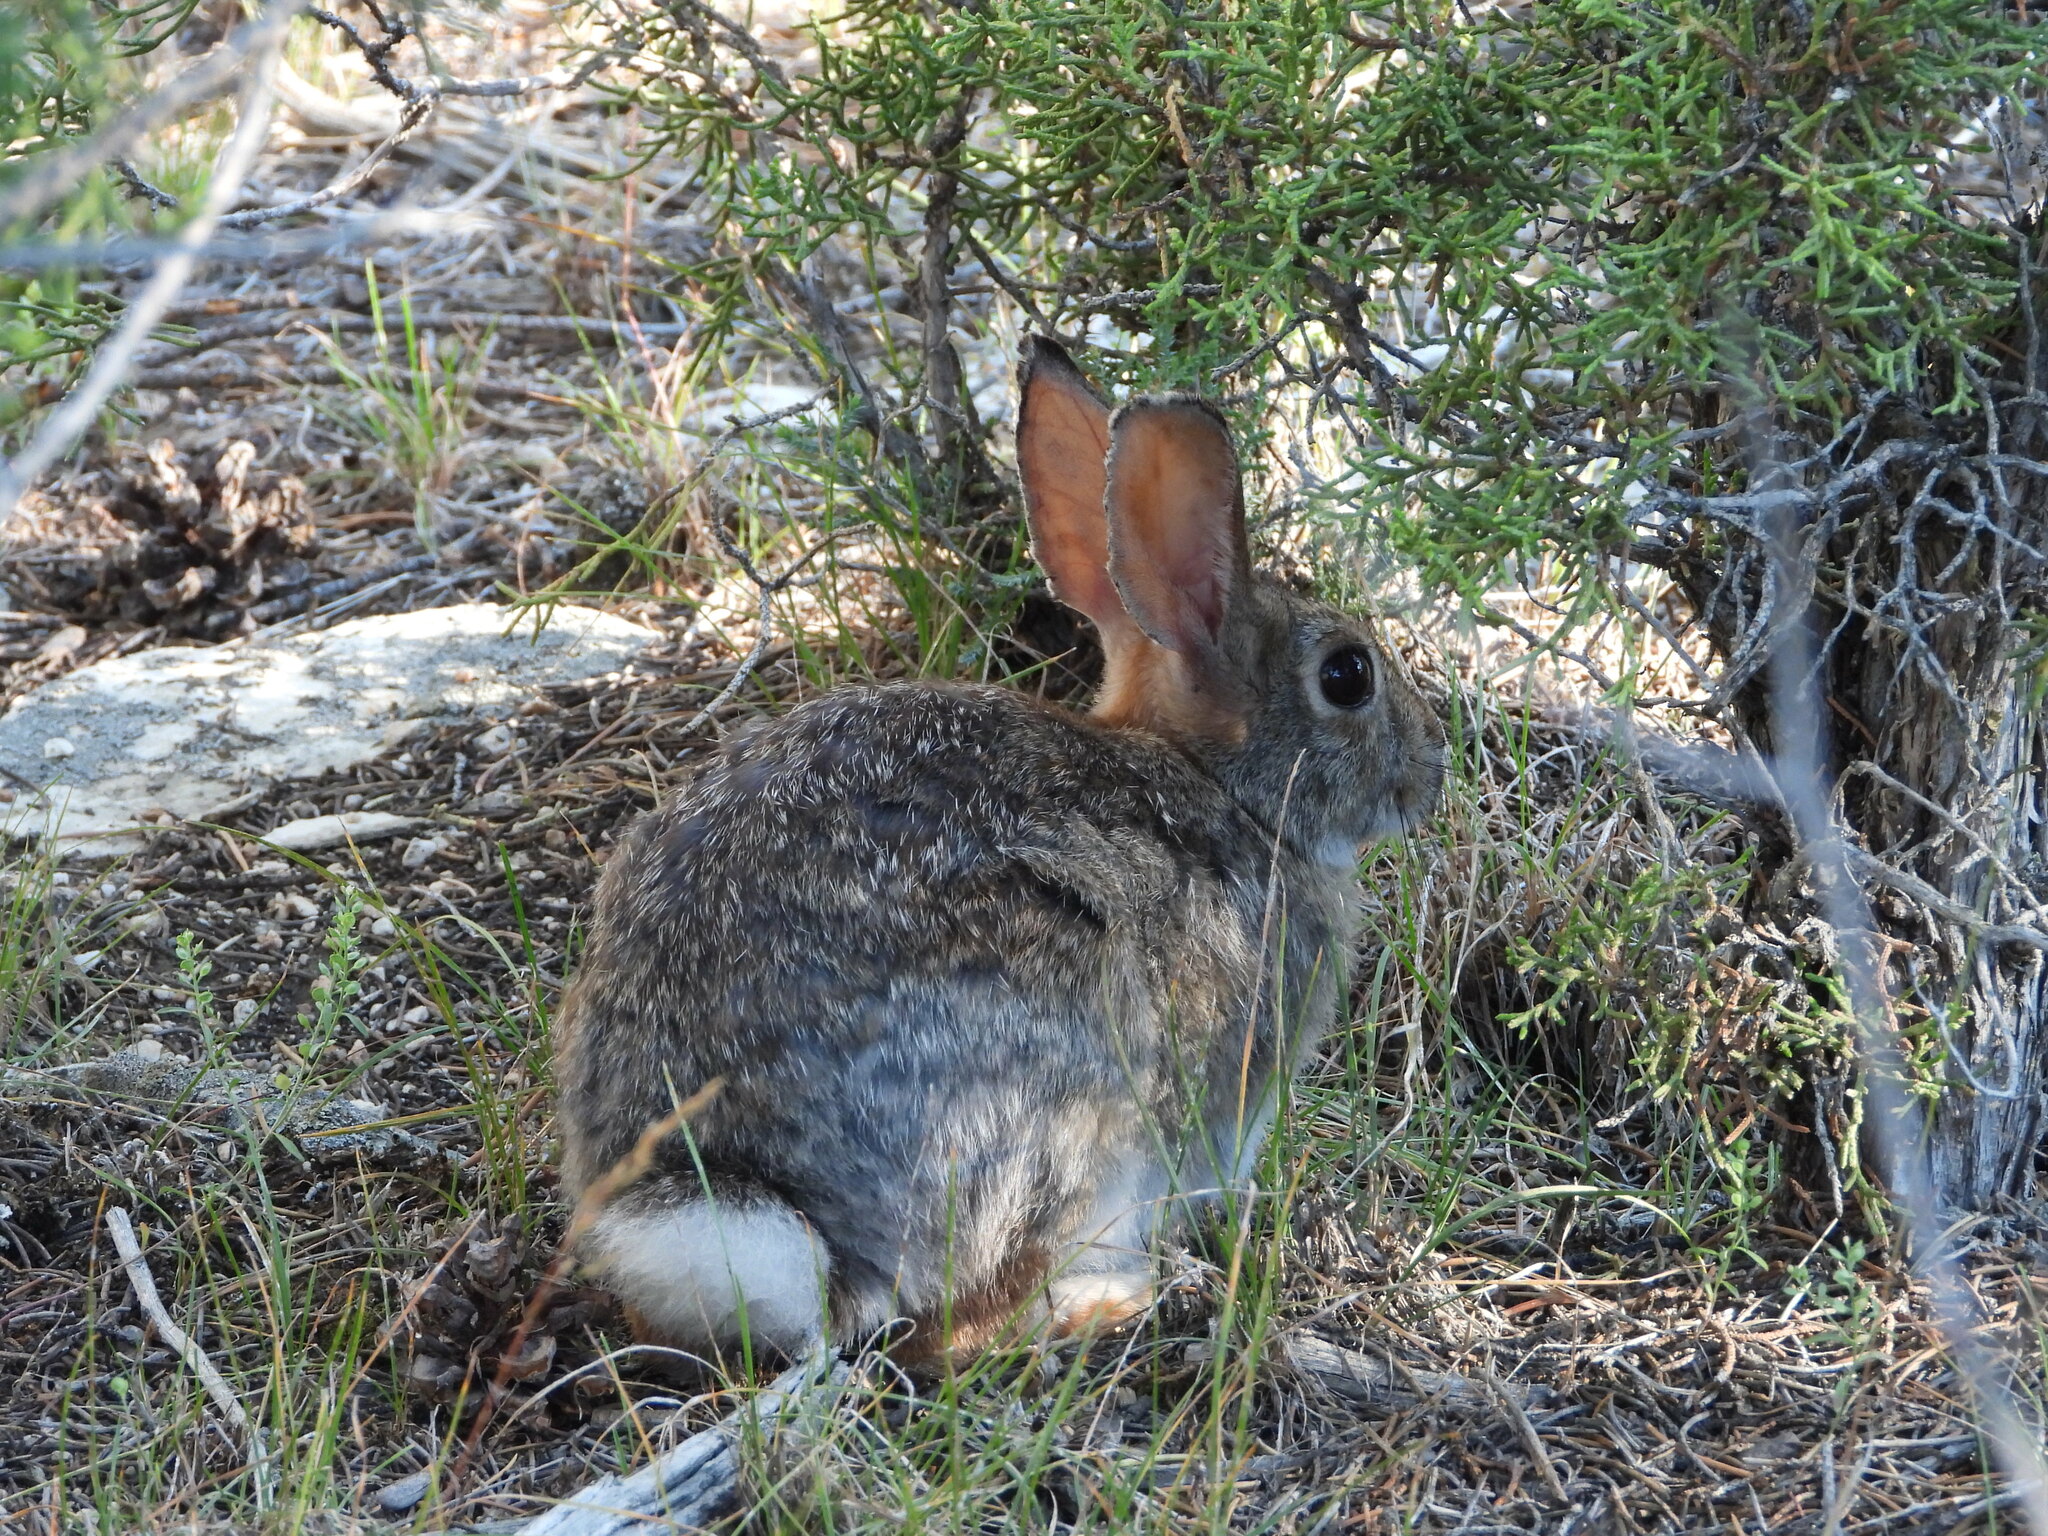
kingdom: Animalia
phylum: Chordata
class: Mammalia
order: Lagomorpha
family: Leporidae
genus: Sylvilagus
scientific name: Sylvilagus nuttallii
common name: Mountain cottontail
